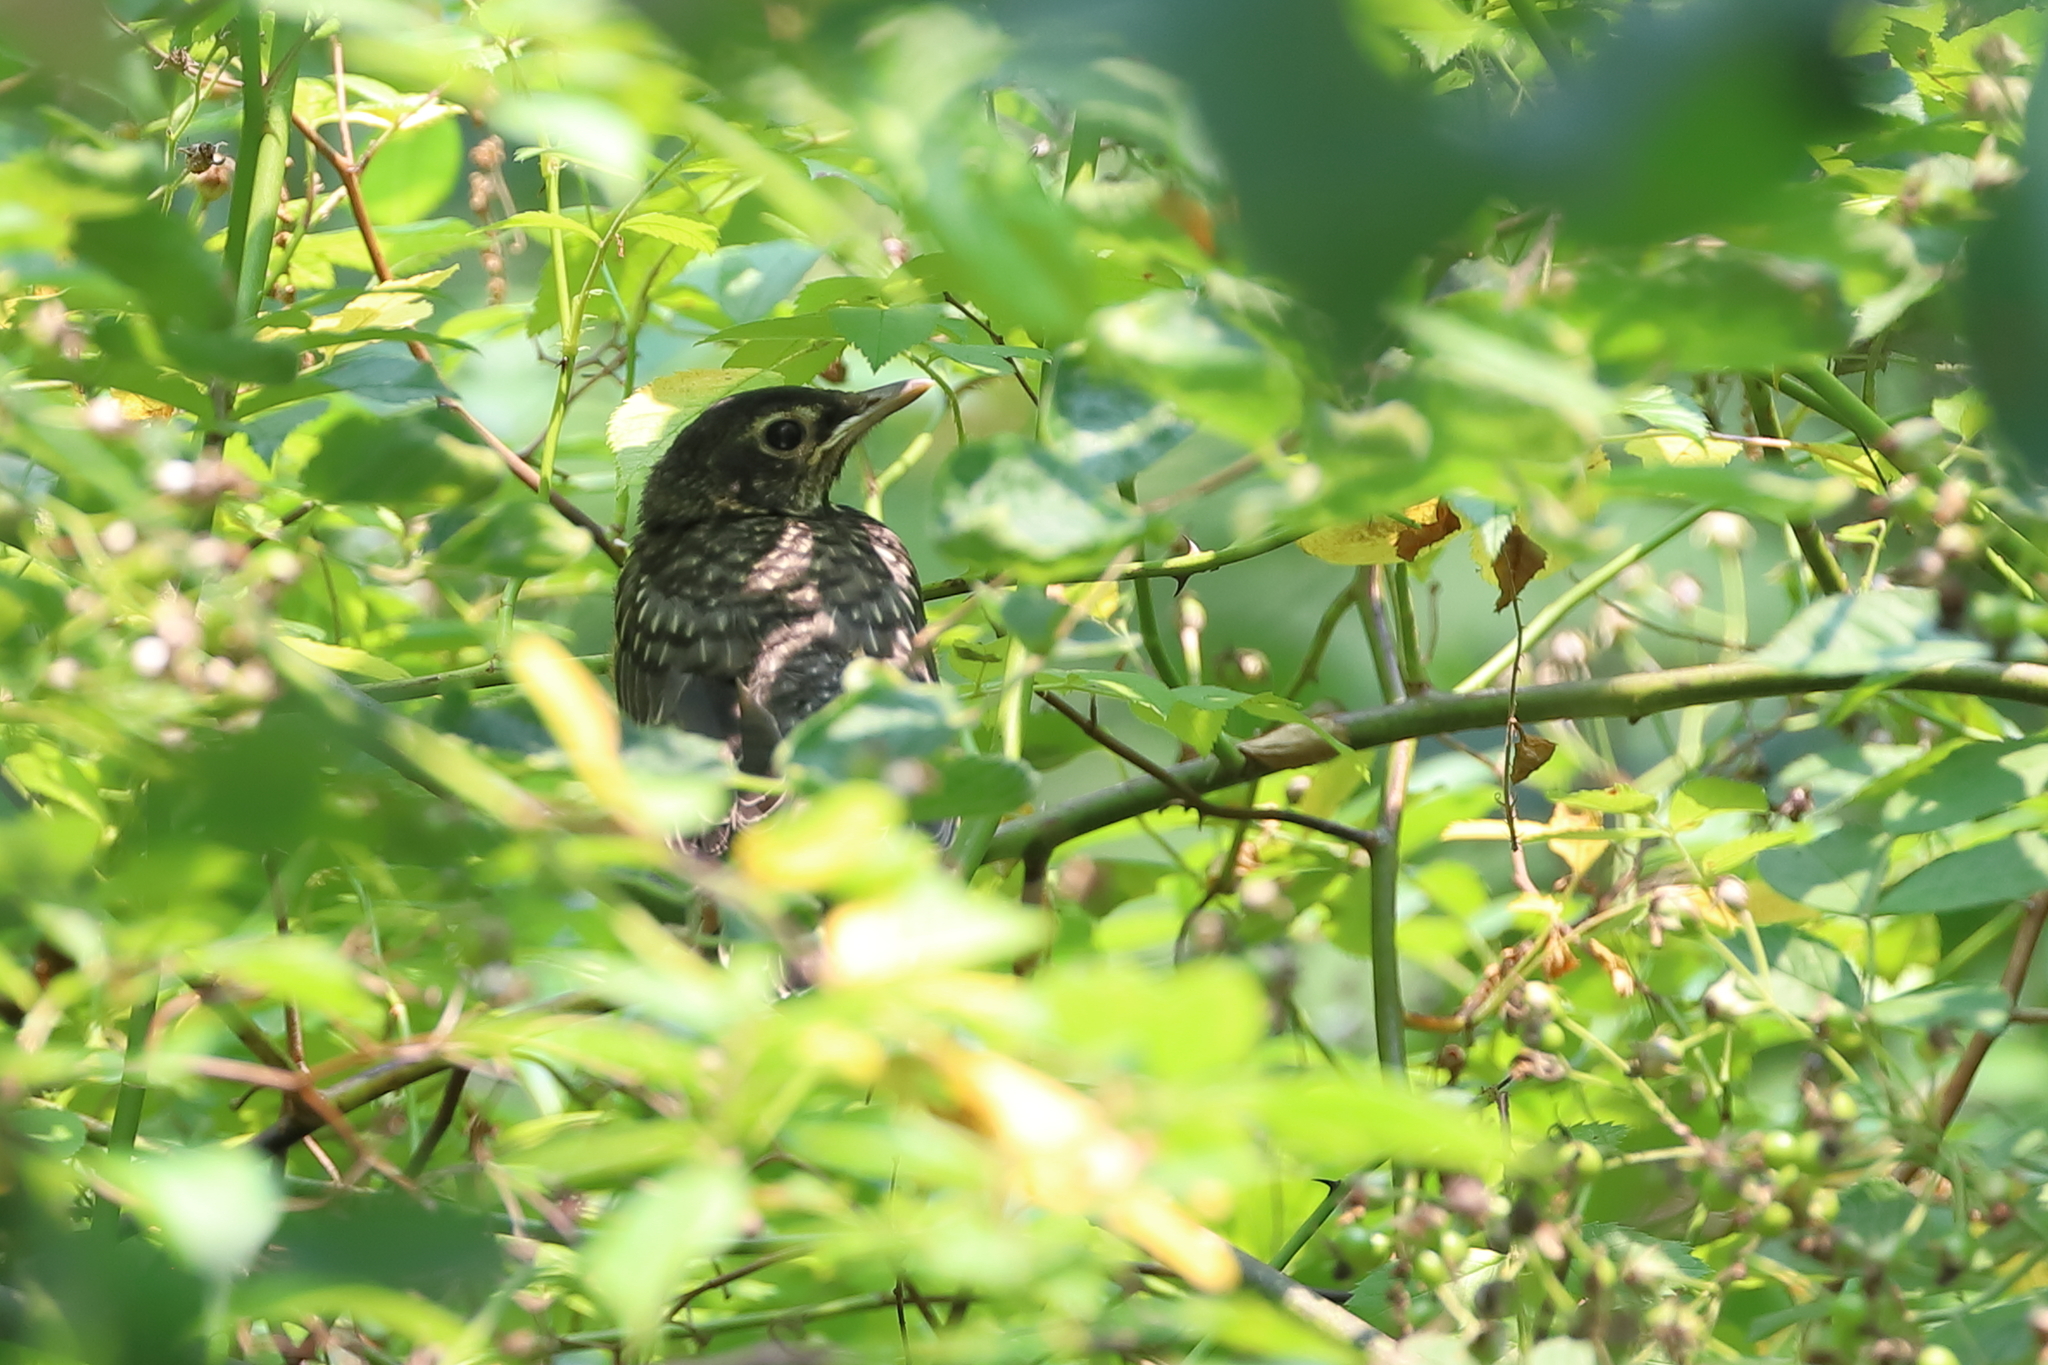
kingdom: Animalia
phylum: Chordata
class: Aves
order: Passeriformes
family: Turdidae
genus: Turdus
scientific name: Turdus migratorius
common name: American robin
